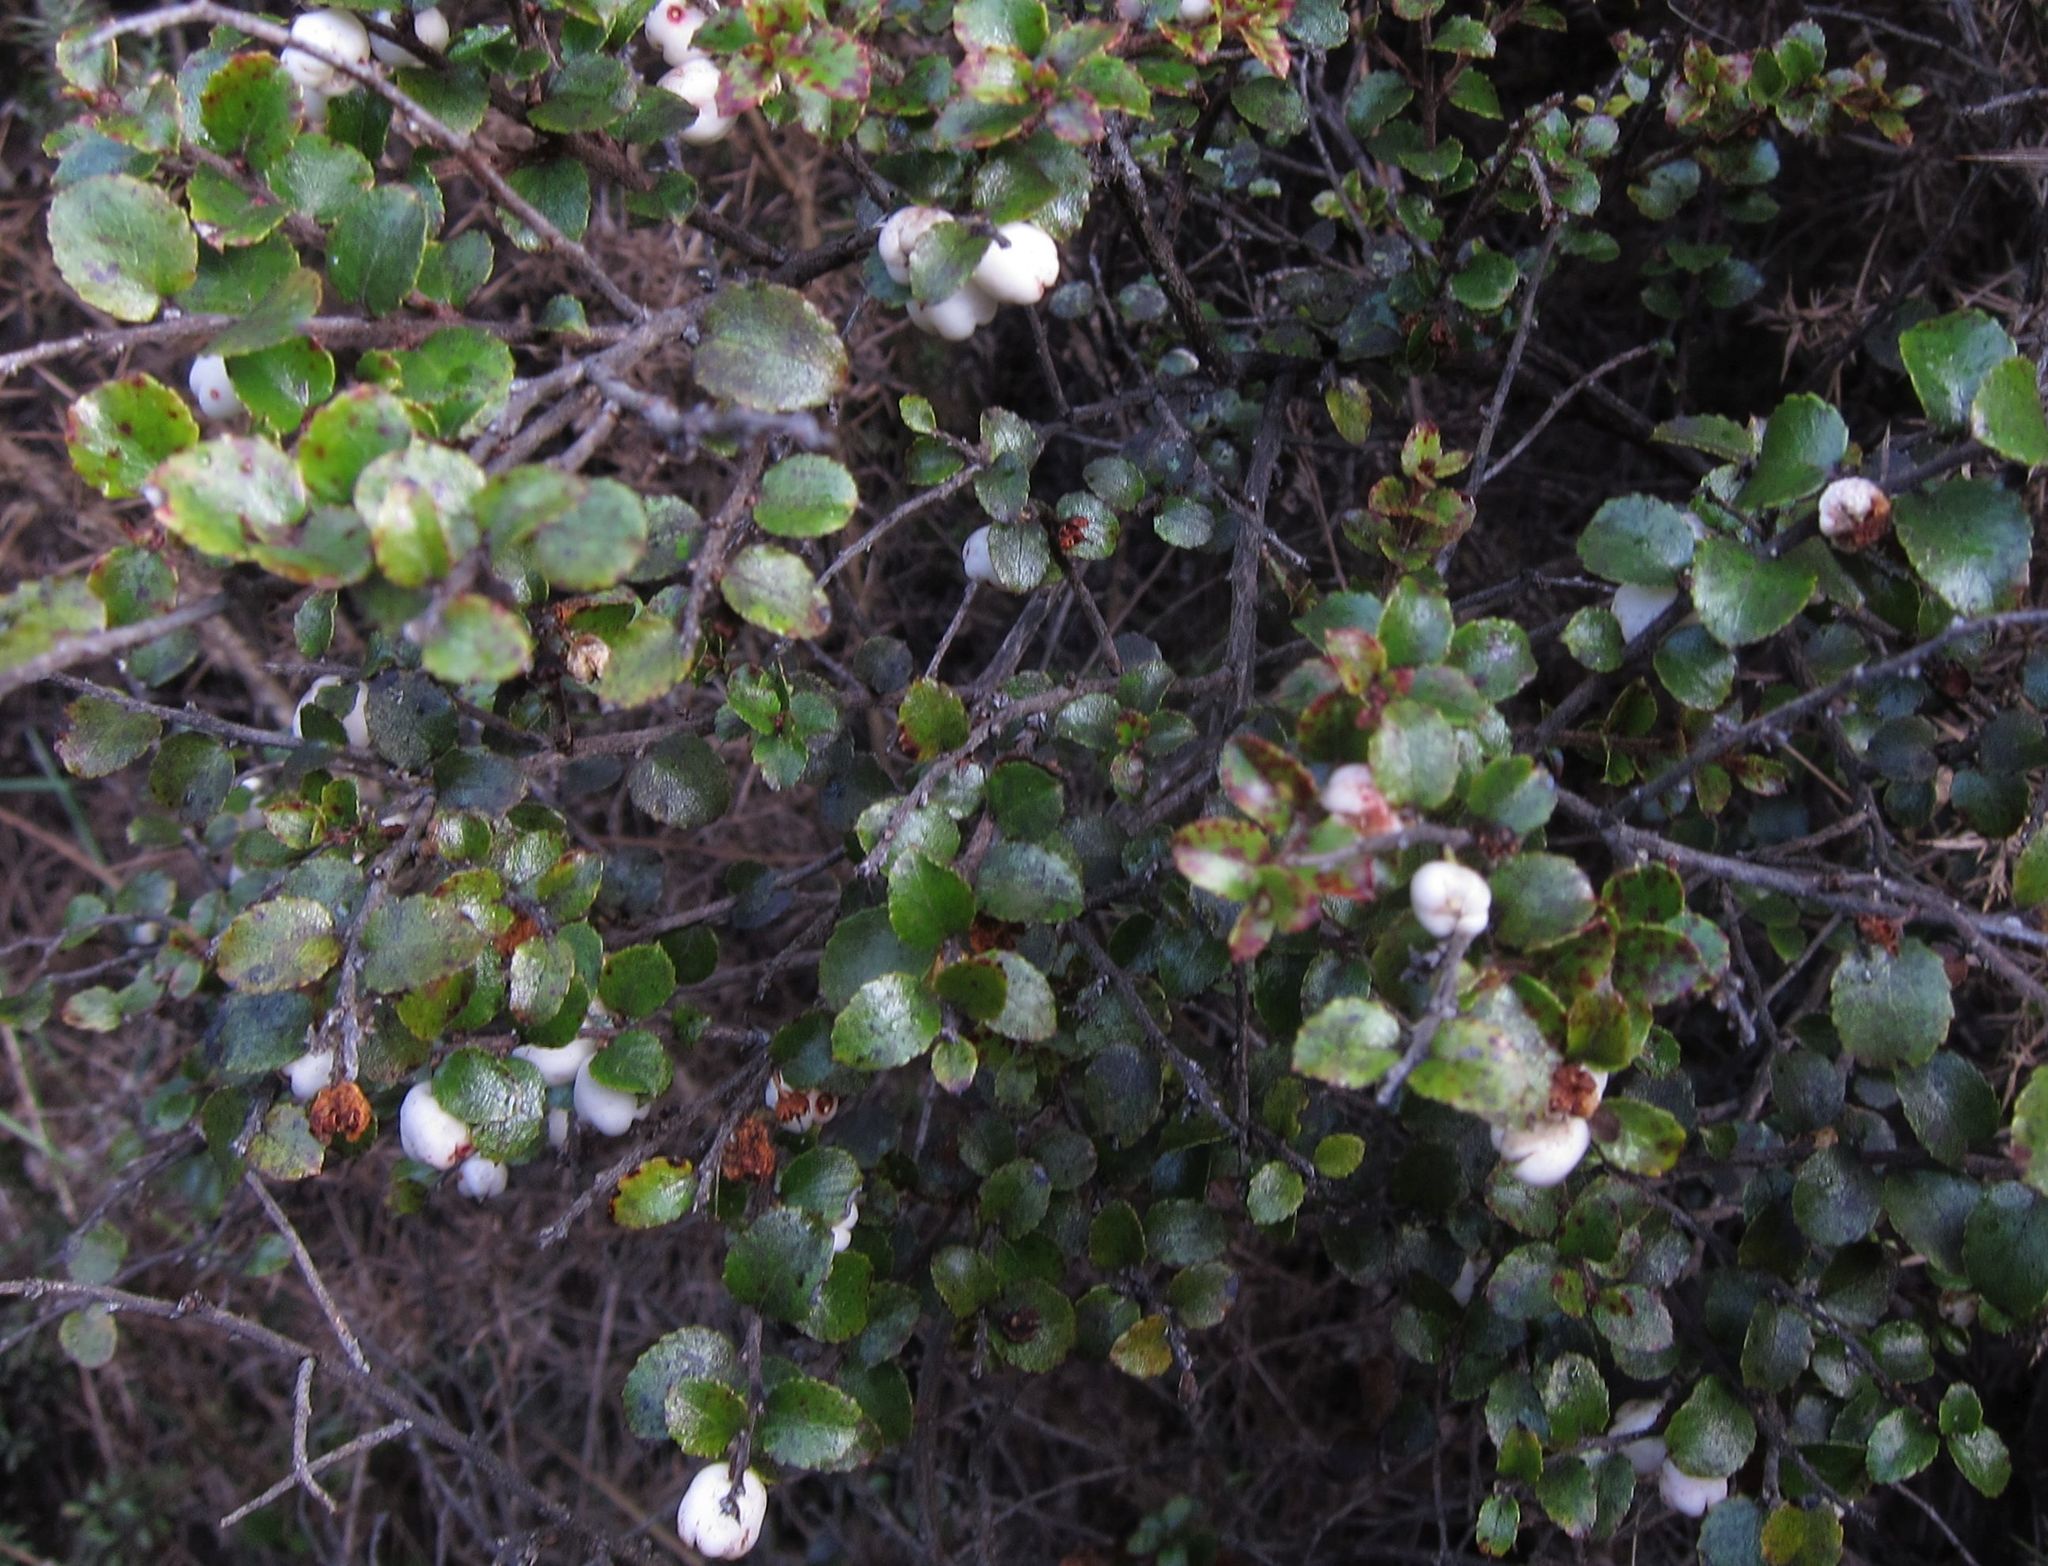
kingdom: Plantae
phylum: Tracheophyta
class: Magnoliopsida
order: Ericales
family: Ericaceae
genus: Gaultheria
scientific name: Gaultheria antipoda
